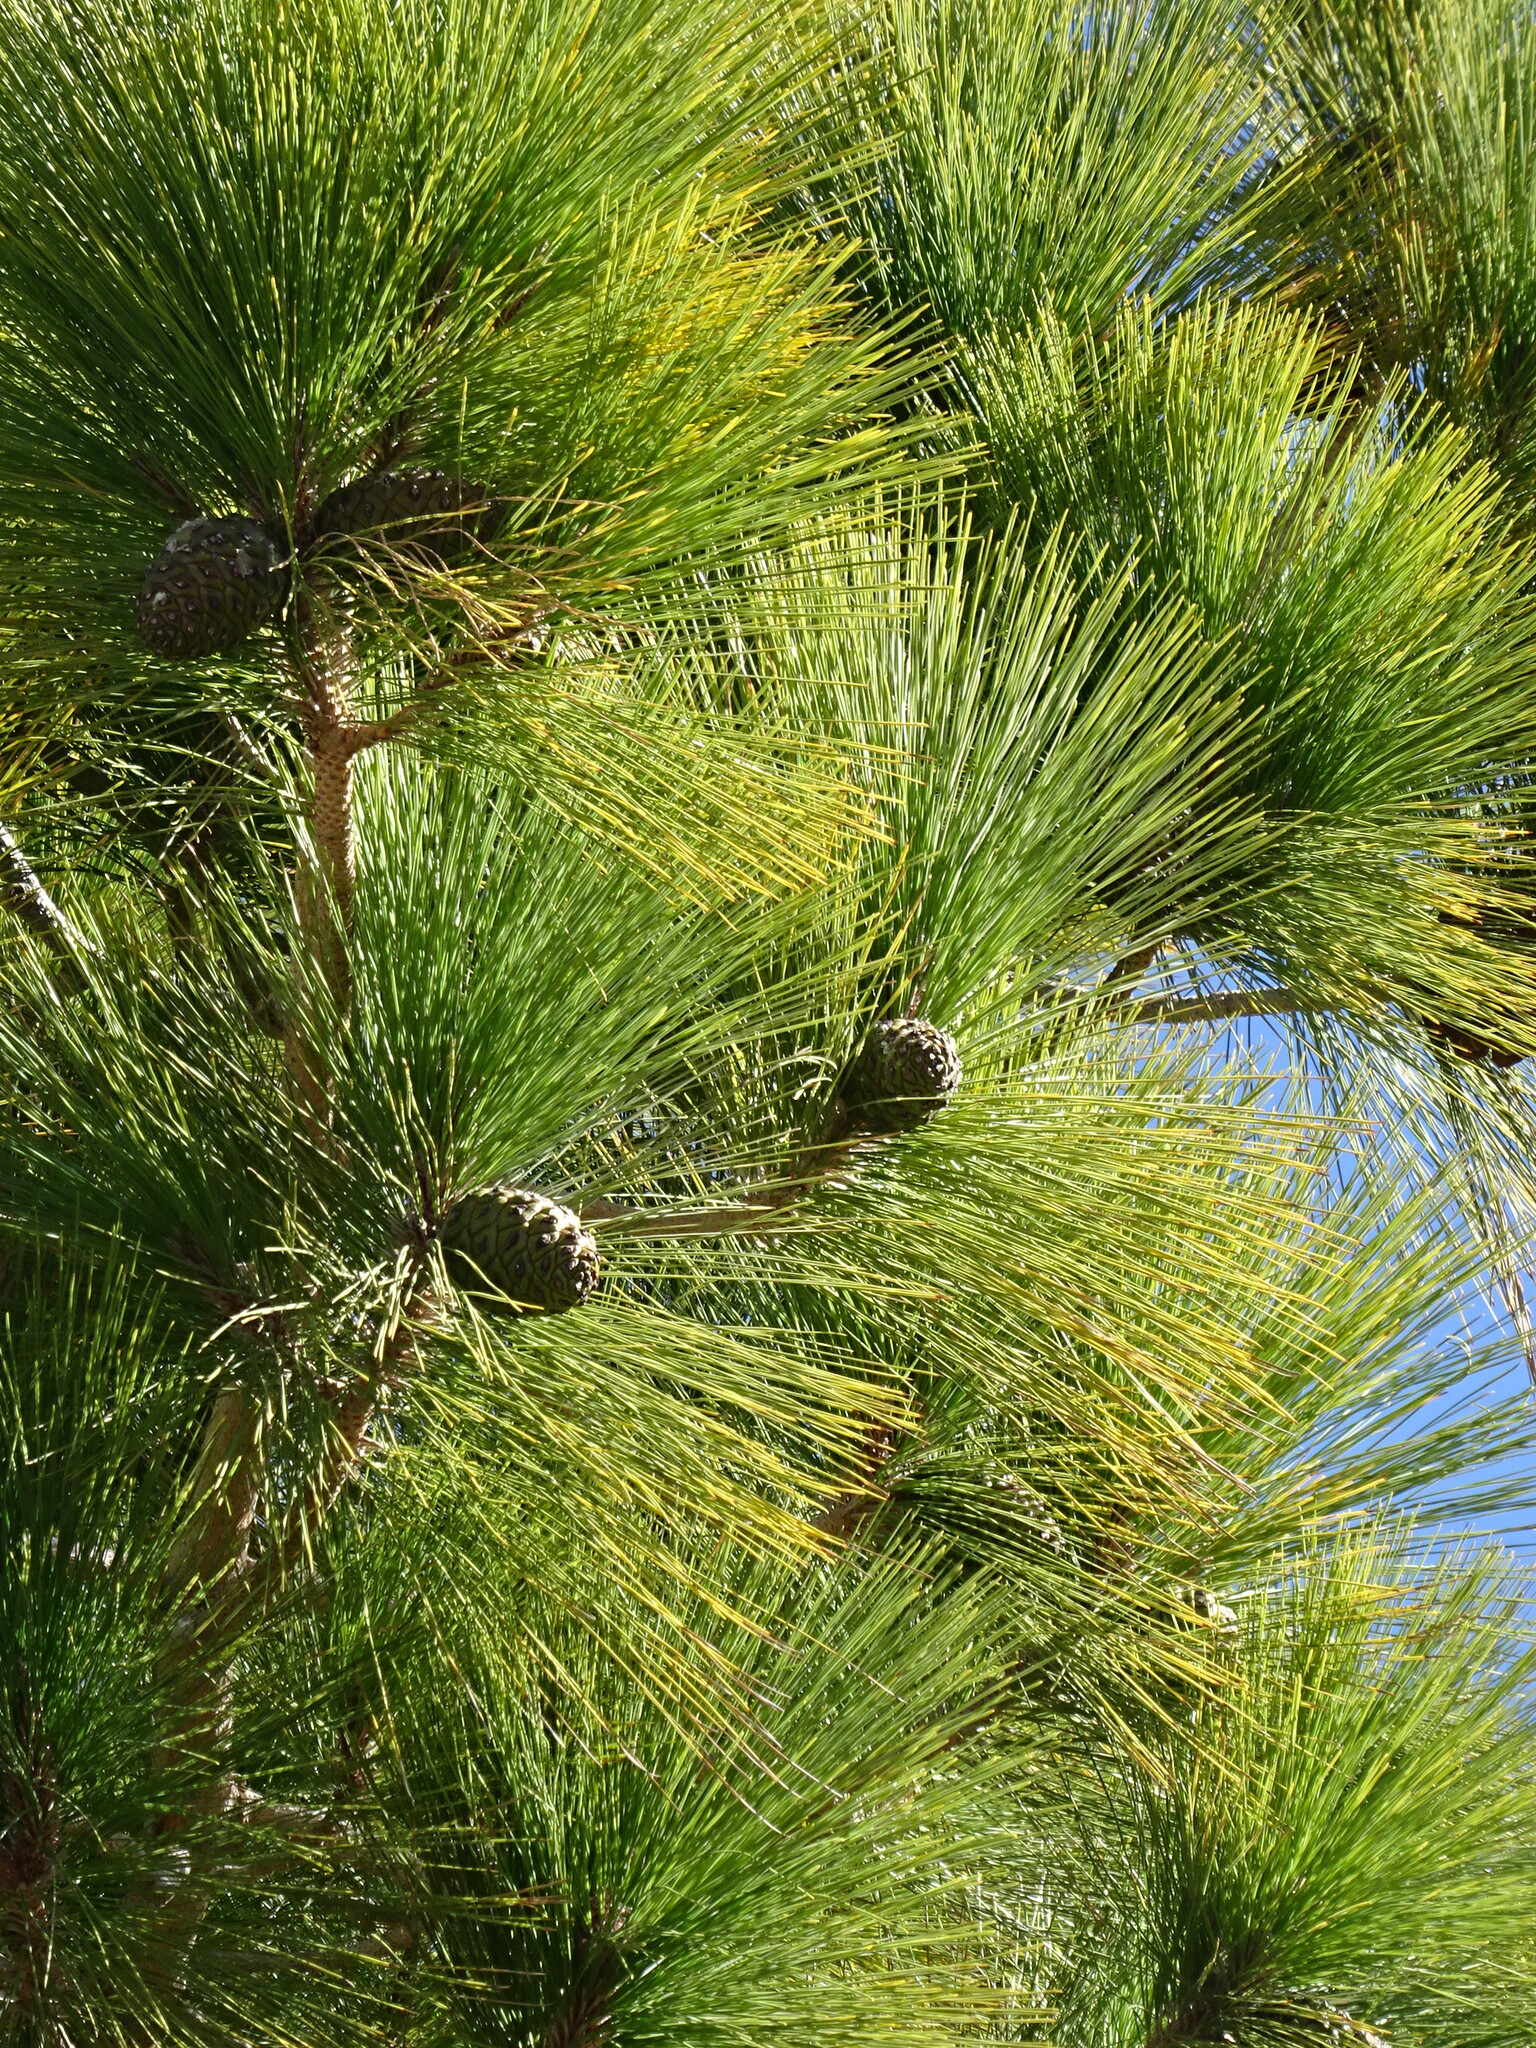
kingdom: Plantae
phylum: Tracheophyta
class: Pinopsida
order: Pinales
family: Pinaceae
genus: Pinus
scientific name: Pinus canariensis
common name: Canary islands pine
